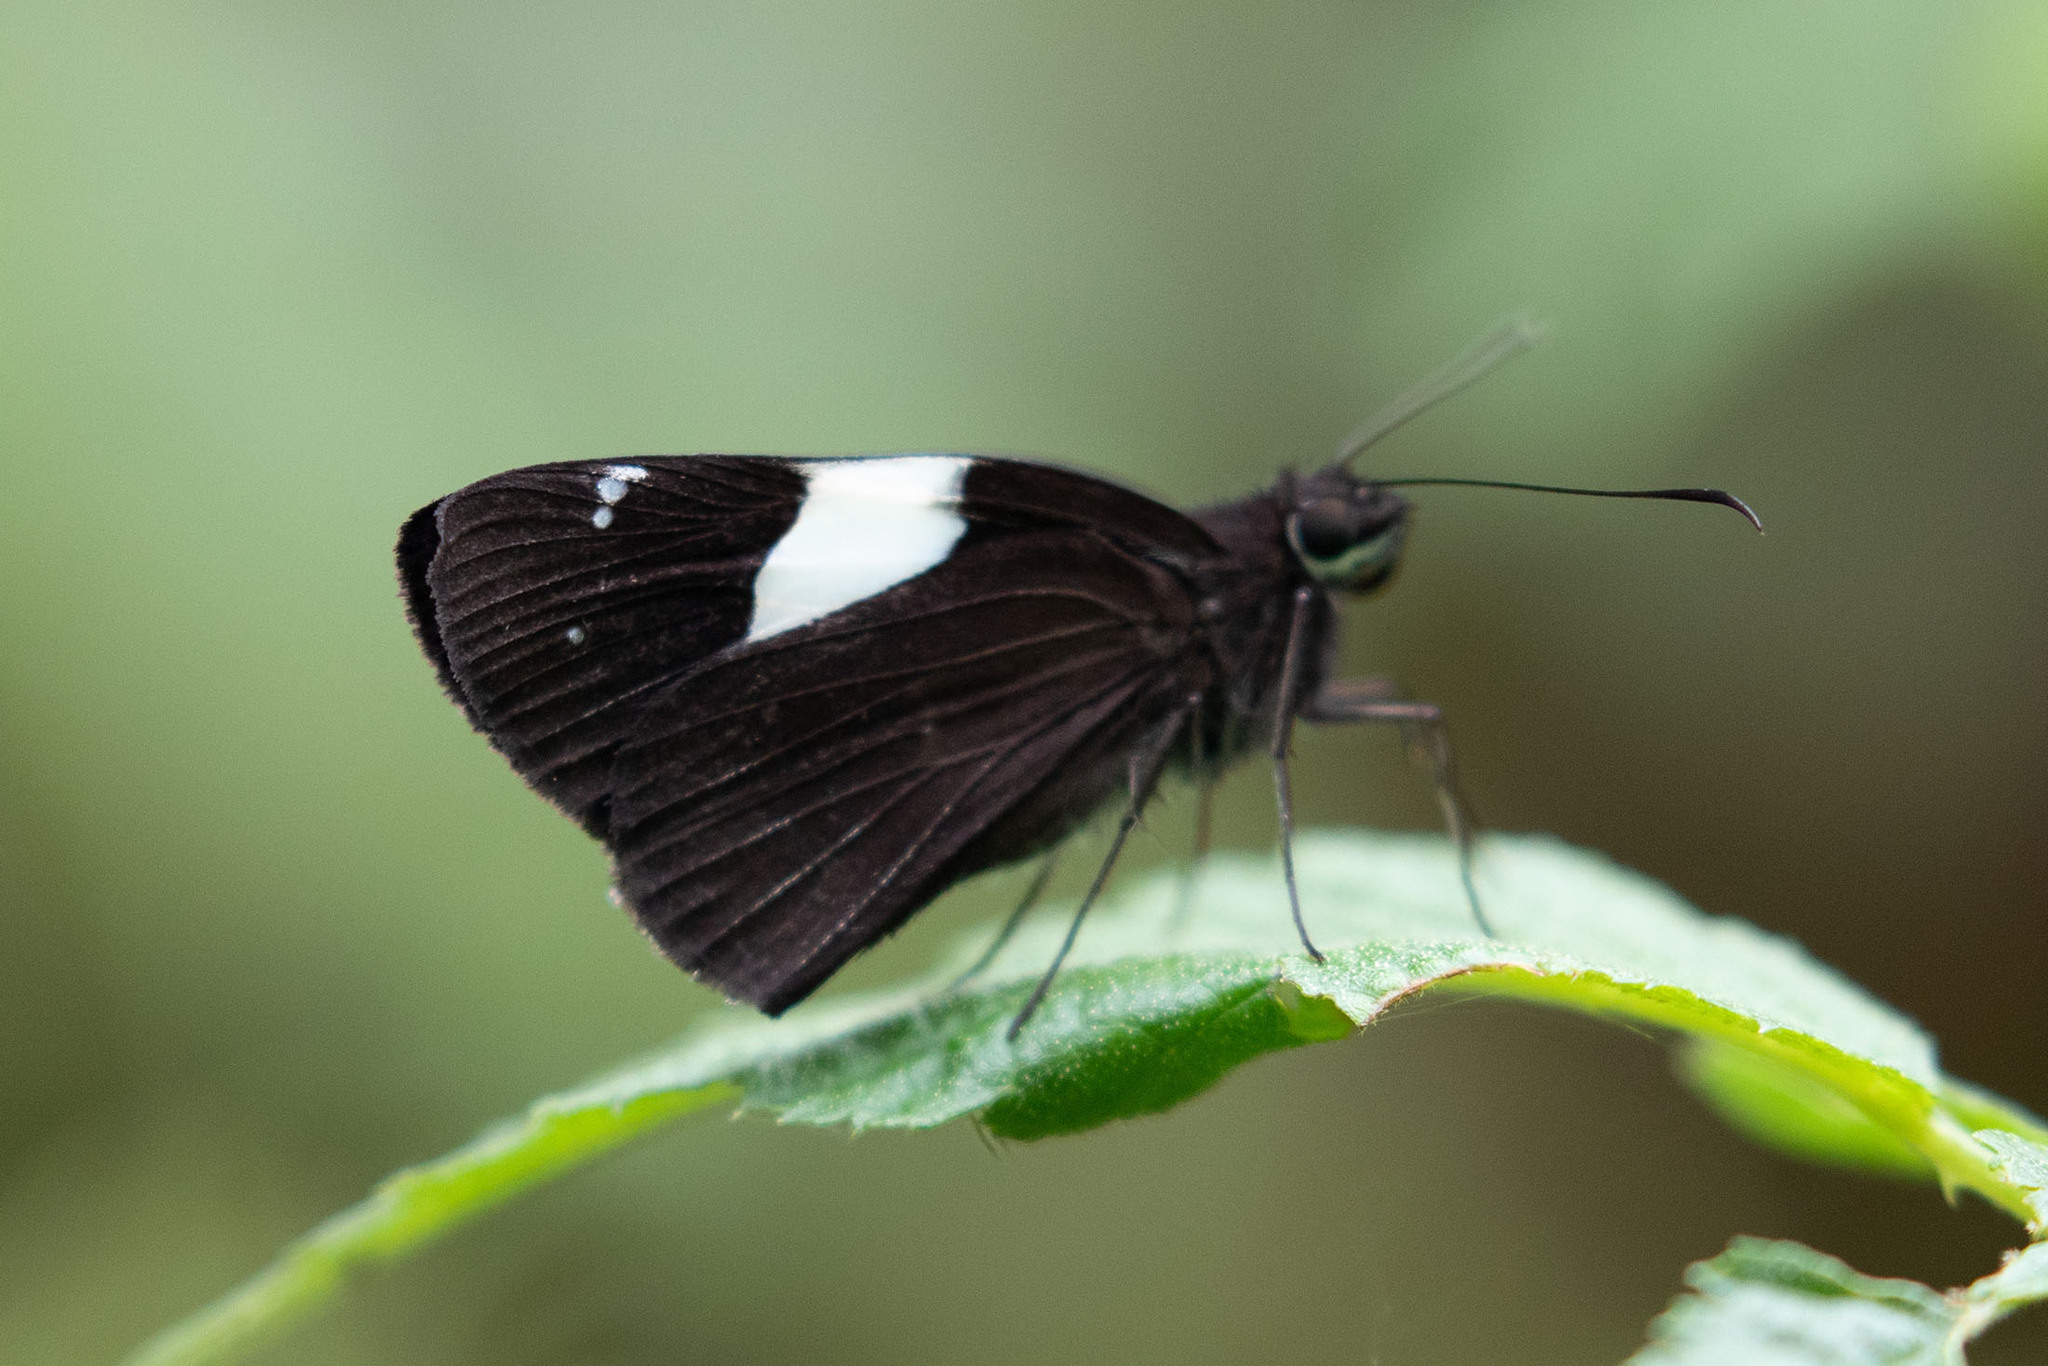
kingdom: Animalia
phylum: Arthropoda
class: Insecta
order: Lepidoptera
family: Hesperiidae
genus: Notocrypta
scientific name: Notocrypta maria
